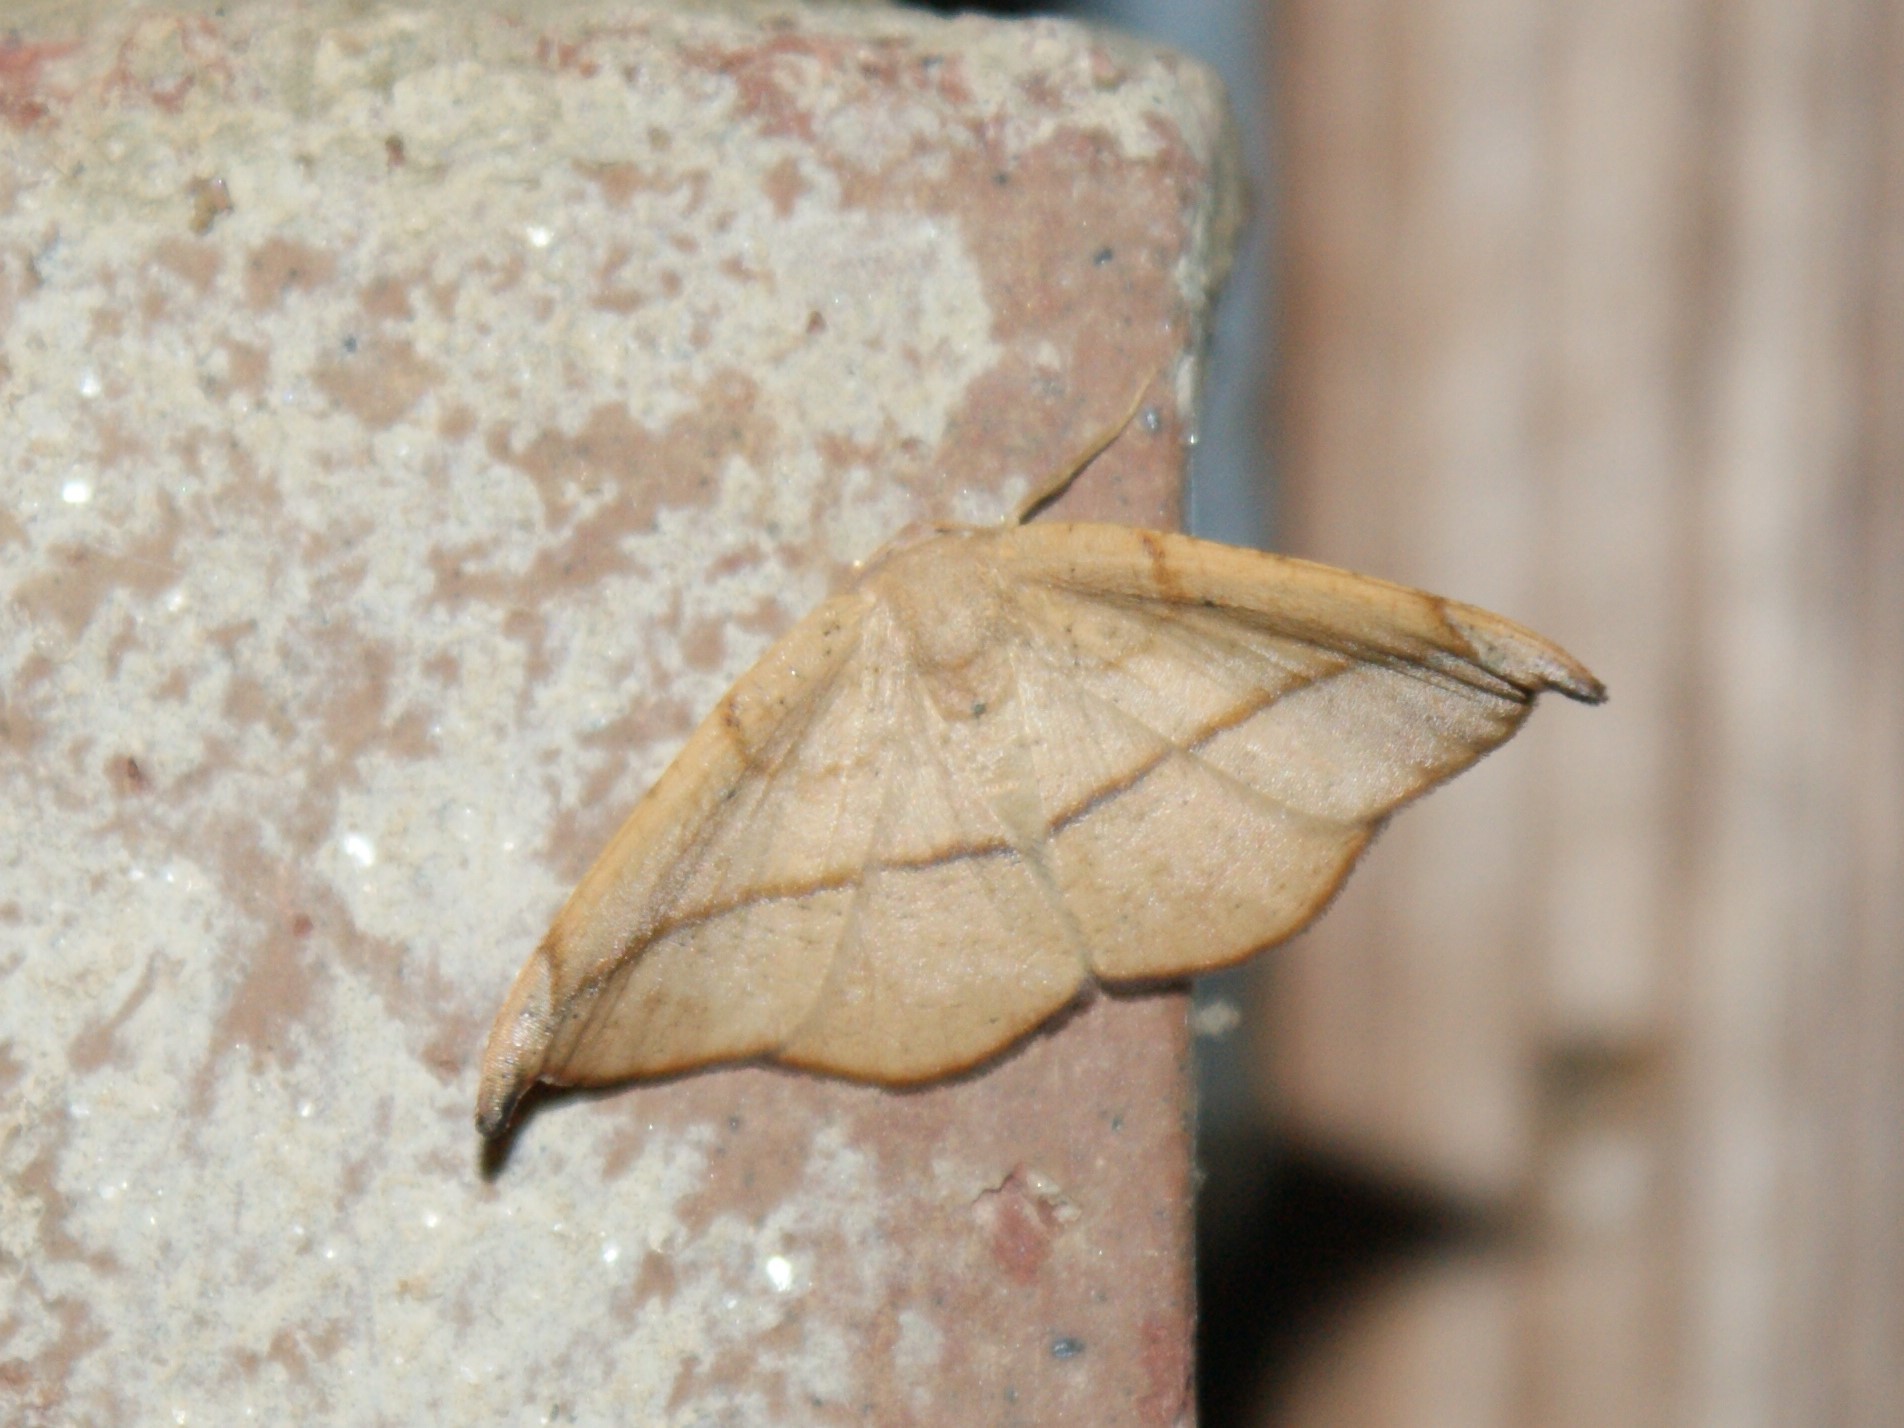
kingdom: Animalia
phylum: Arthropoda
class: Insecta
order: Lepidoptera
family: Geometridae
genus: Patalene
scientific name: Patalene olyzonaria
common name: Juniper geometer moth
